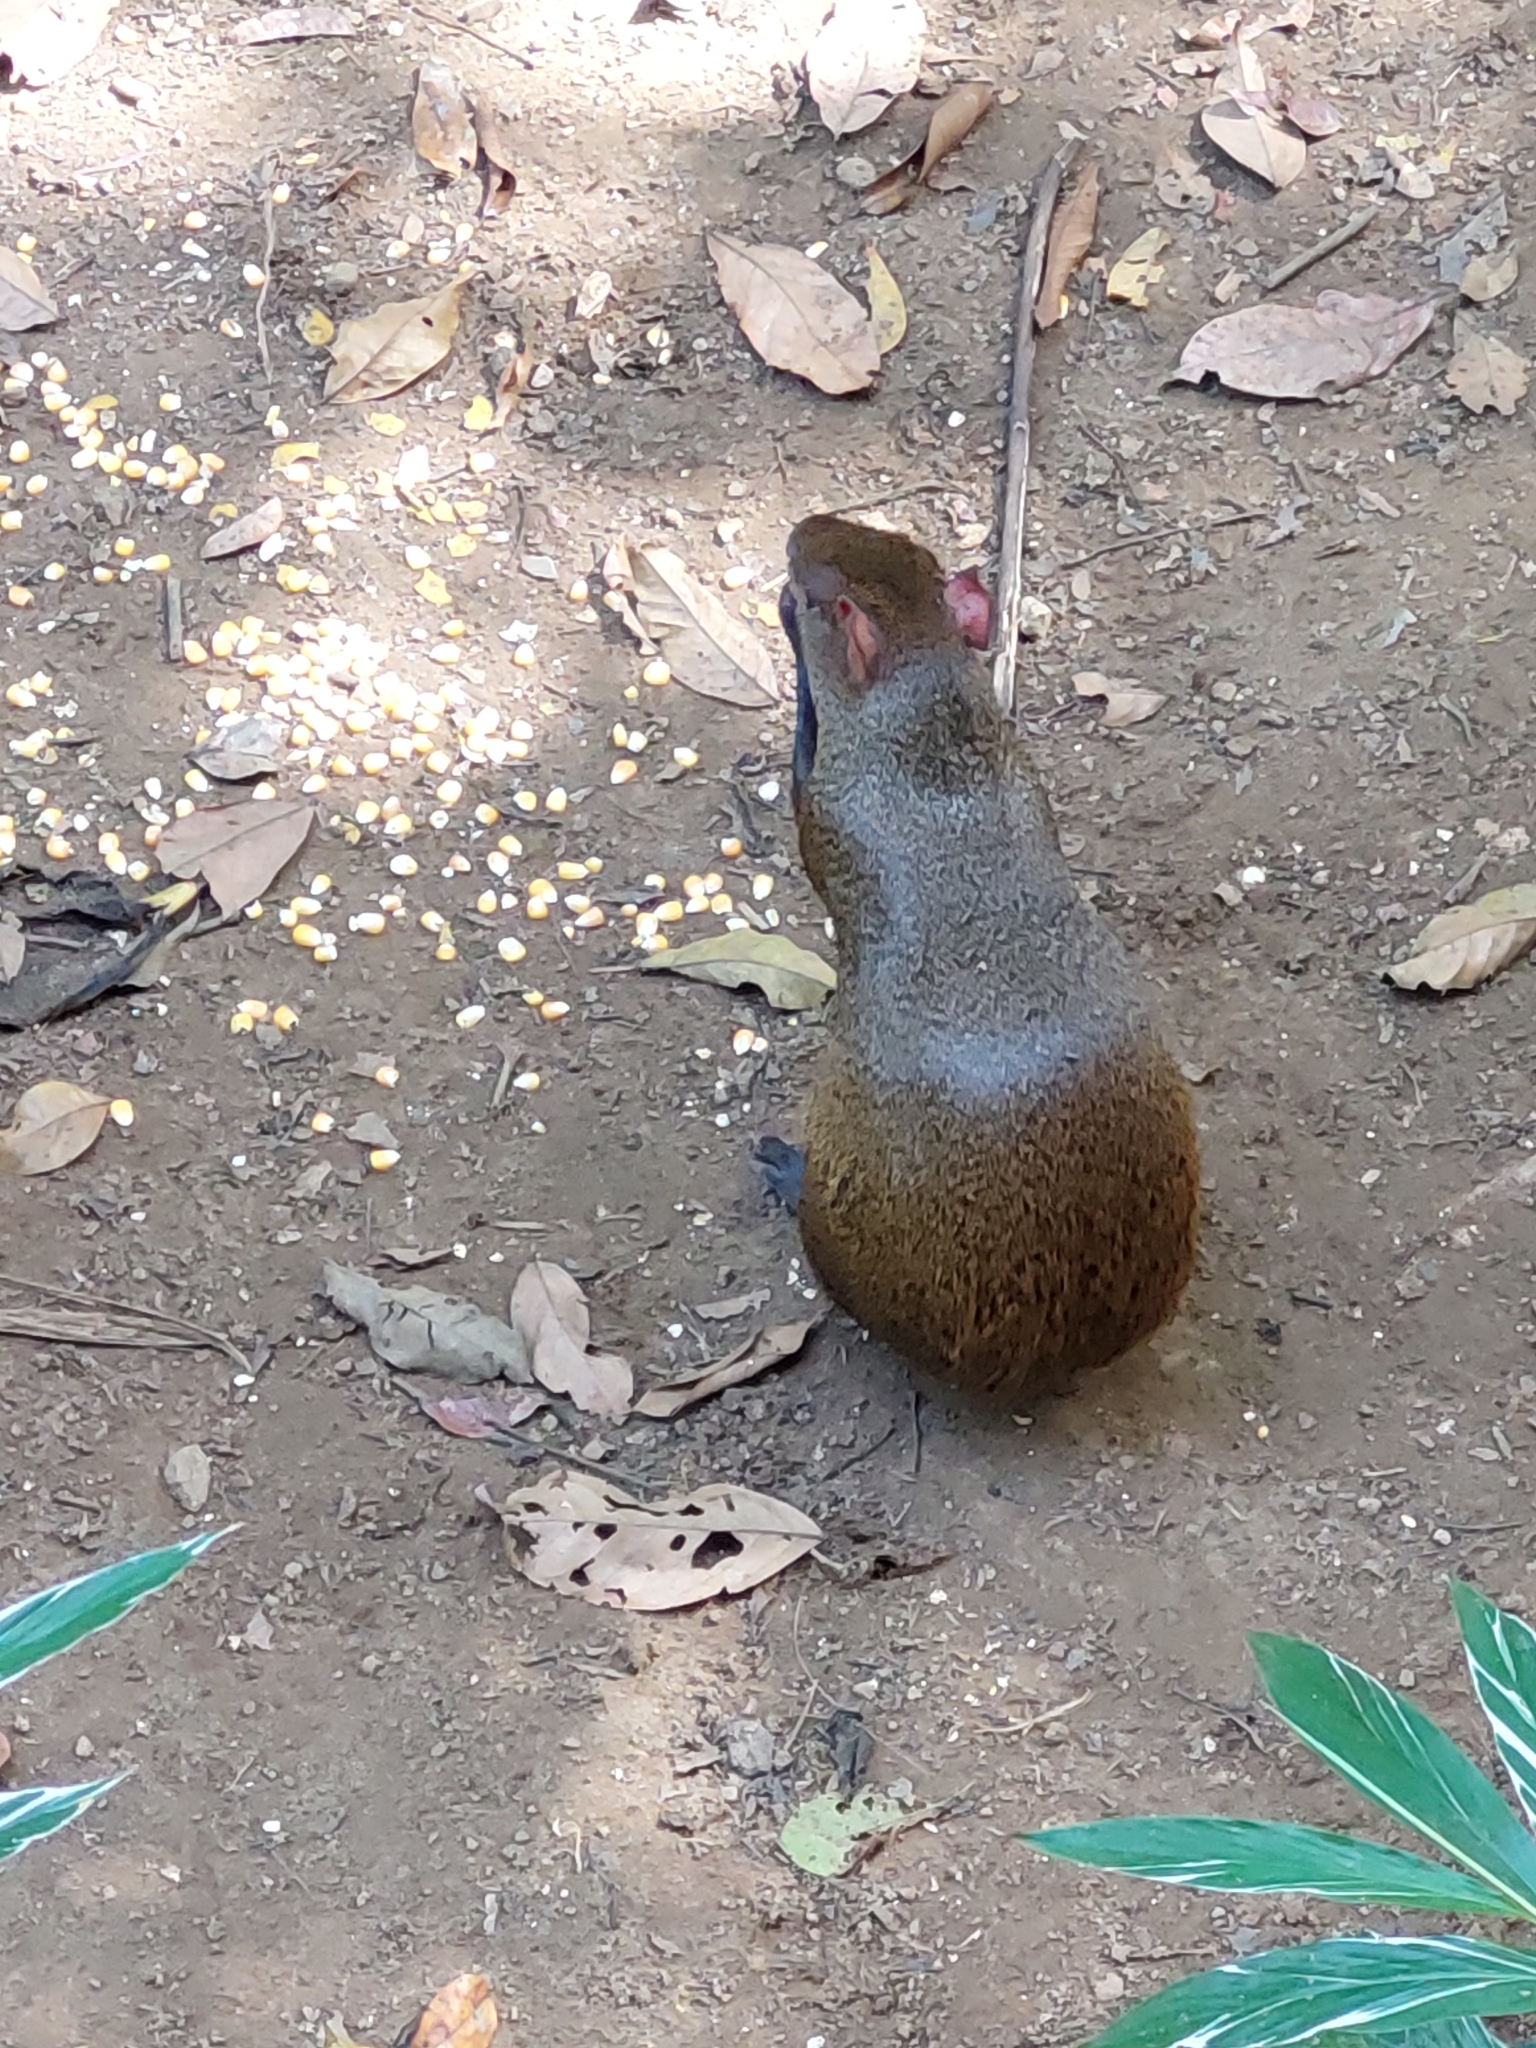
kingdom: Animalia
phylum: Chordata
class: Mammalia
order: Rodentia
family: Dasyproctidae
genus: Dasyprocta
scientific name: Dasyprocta punctata
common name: Central american agouti
